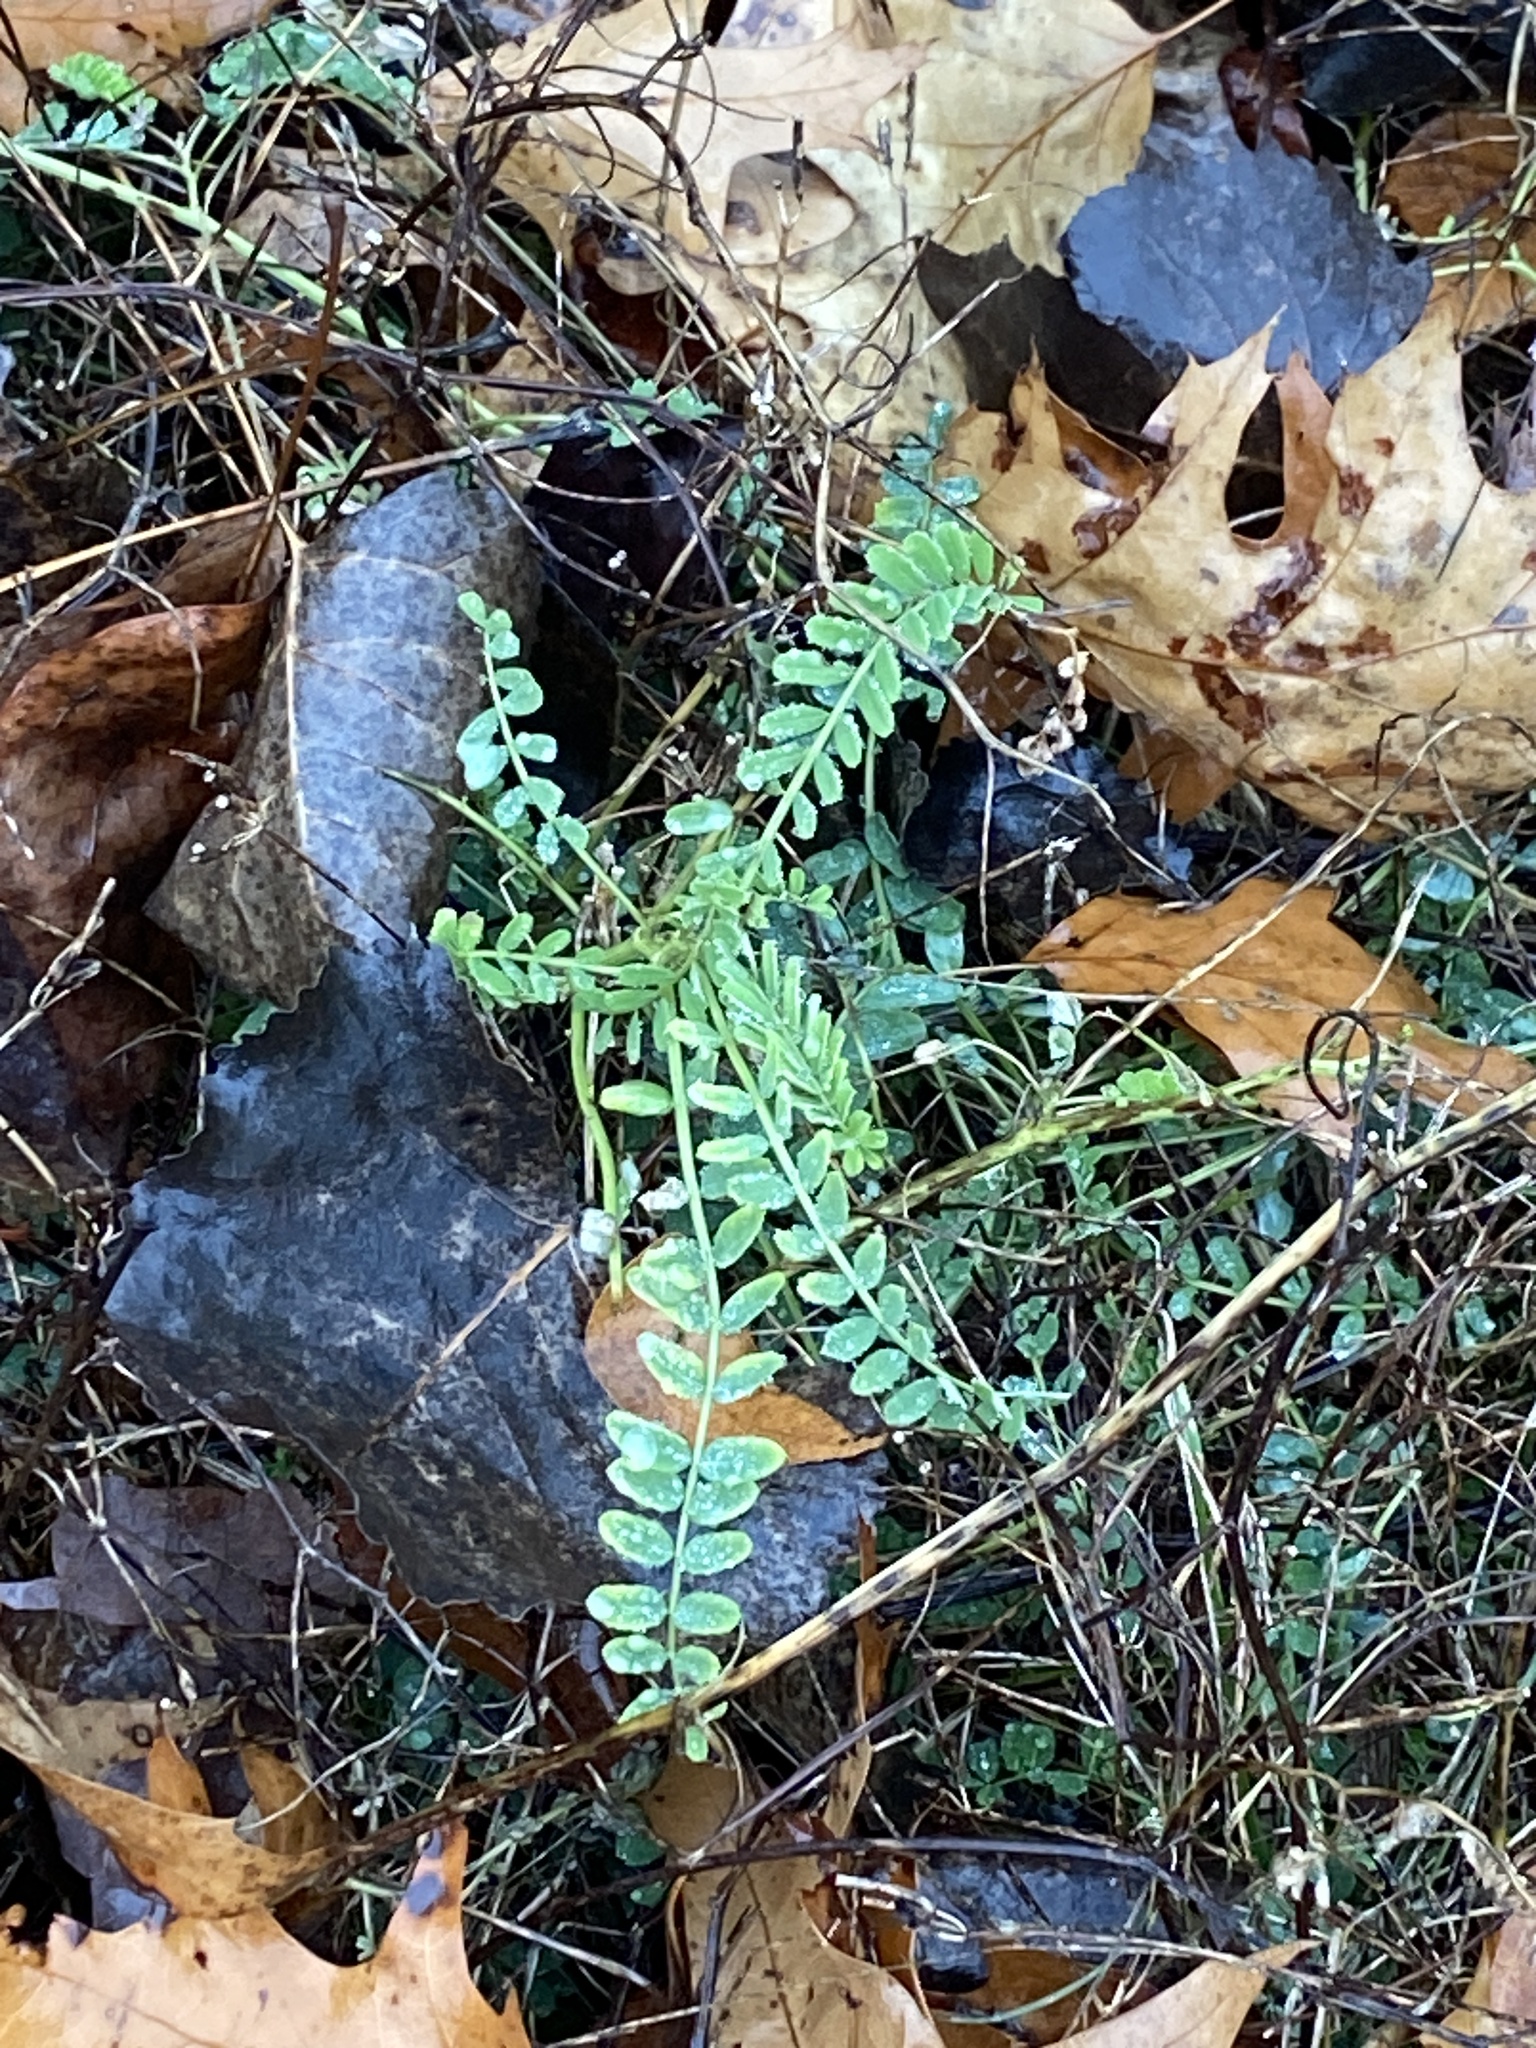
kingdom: Plantae
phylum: Tracheophyta
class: Magnoliopsida
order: Fabales
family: Fabaceae
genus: Coronilla
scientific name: Coronilla varia
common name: Crownvetch
